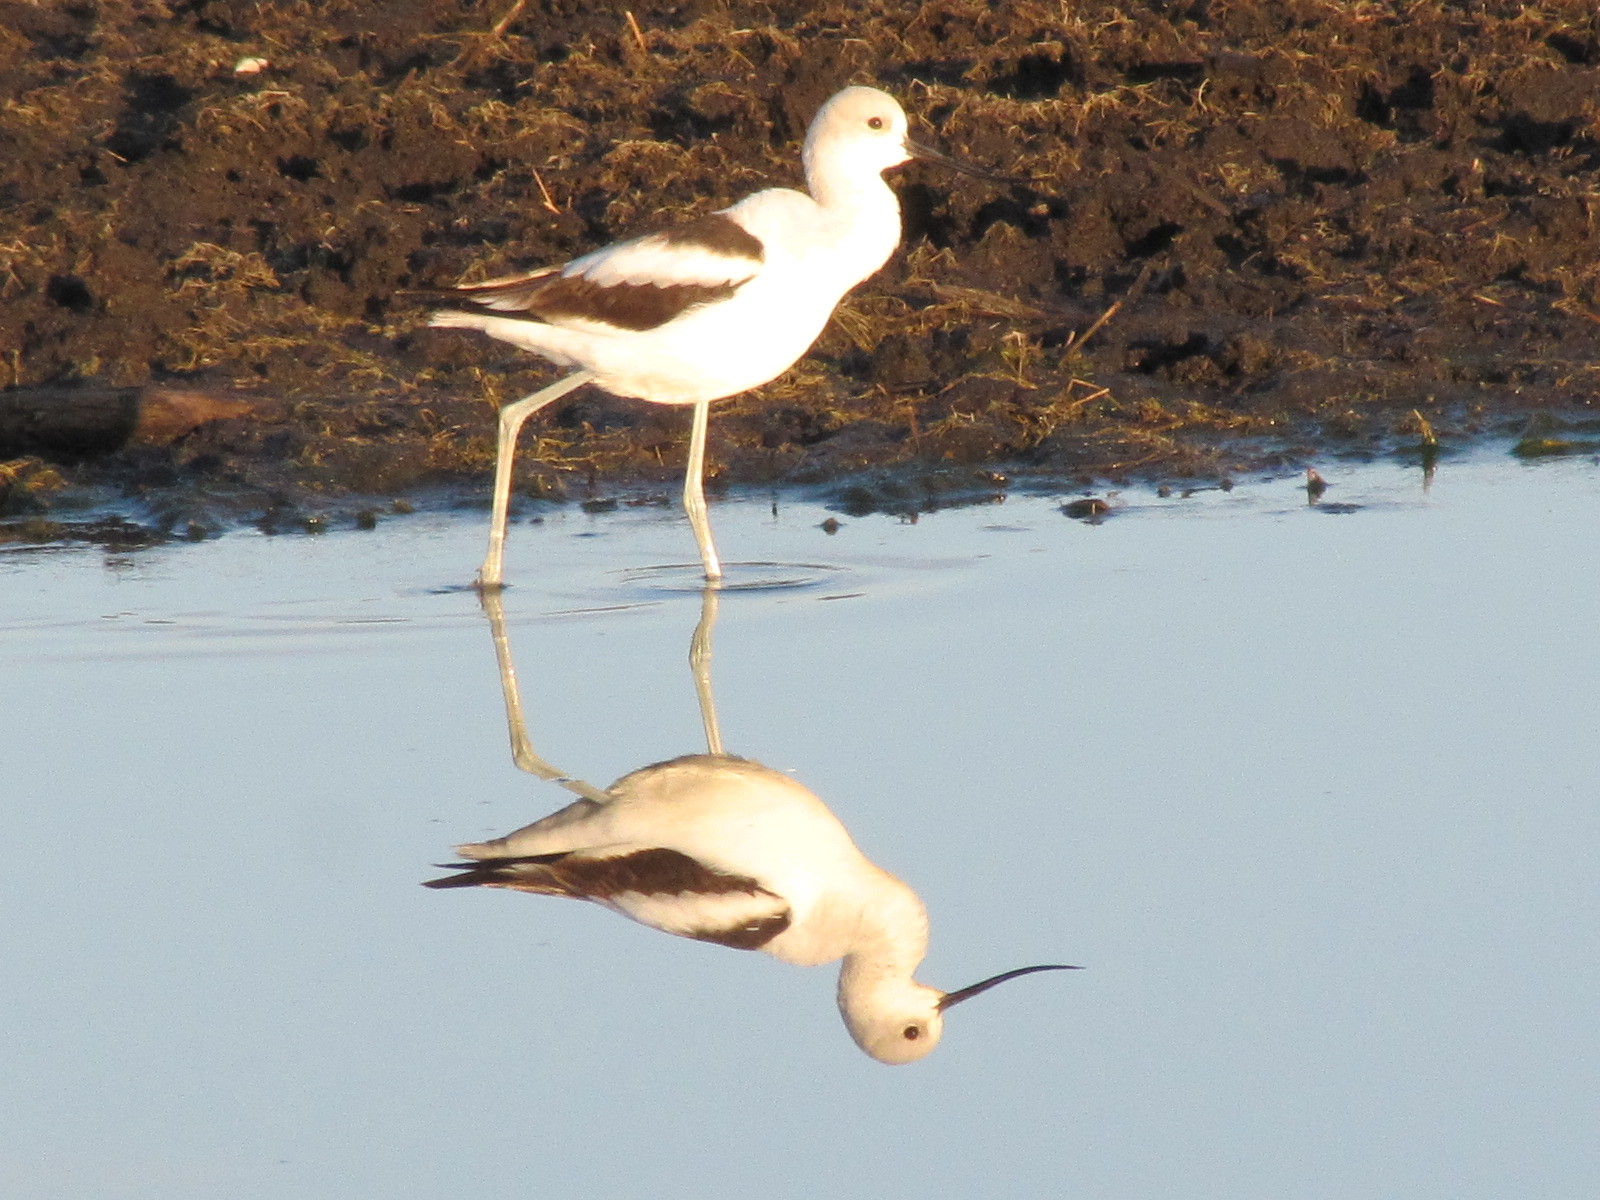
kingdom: Animalia
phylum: Chordata
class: Aves
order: Charadriiformes
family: Recurvirostridae
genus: Recurvirostra
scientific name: Recurvirostra americana
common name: American avocet
